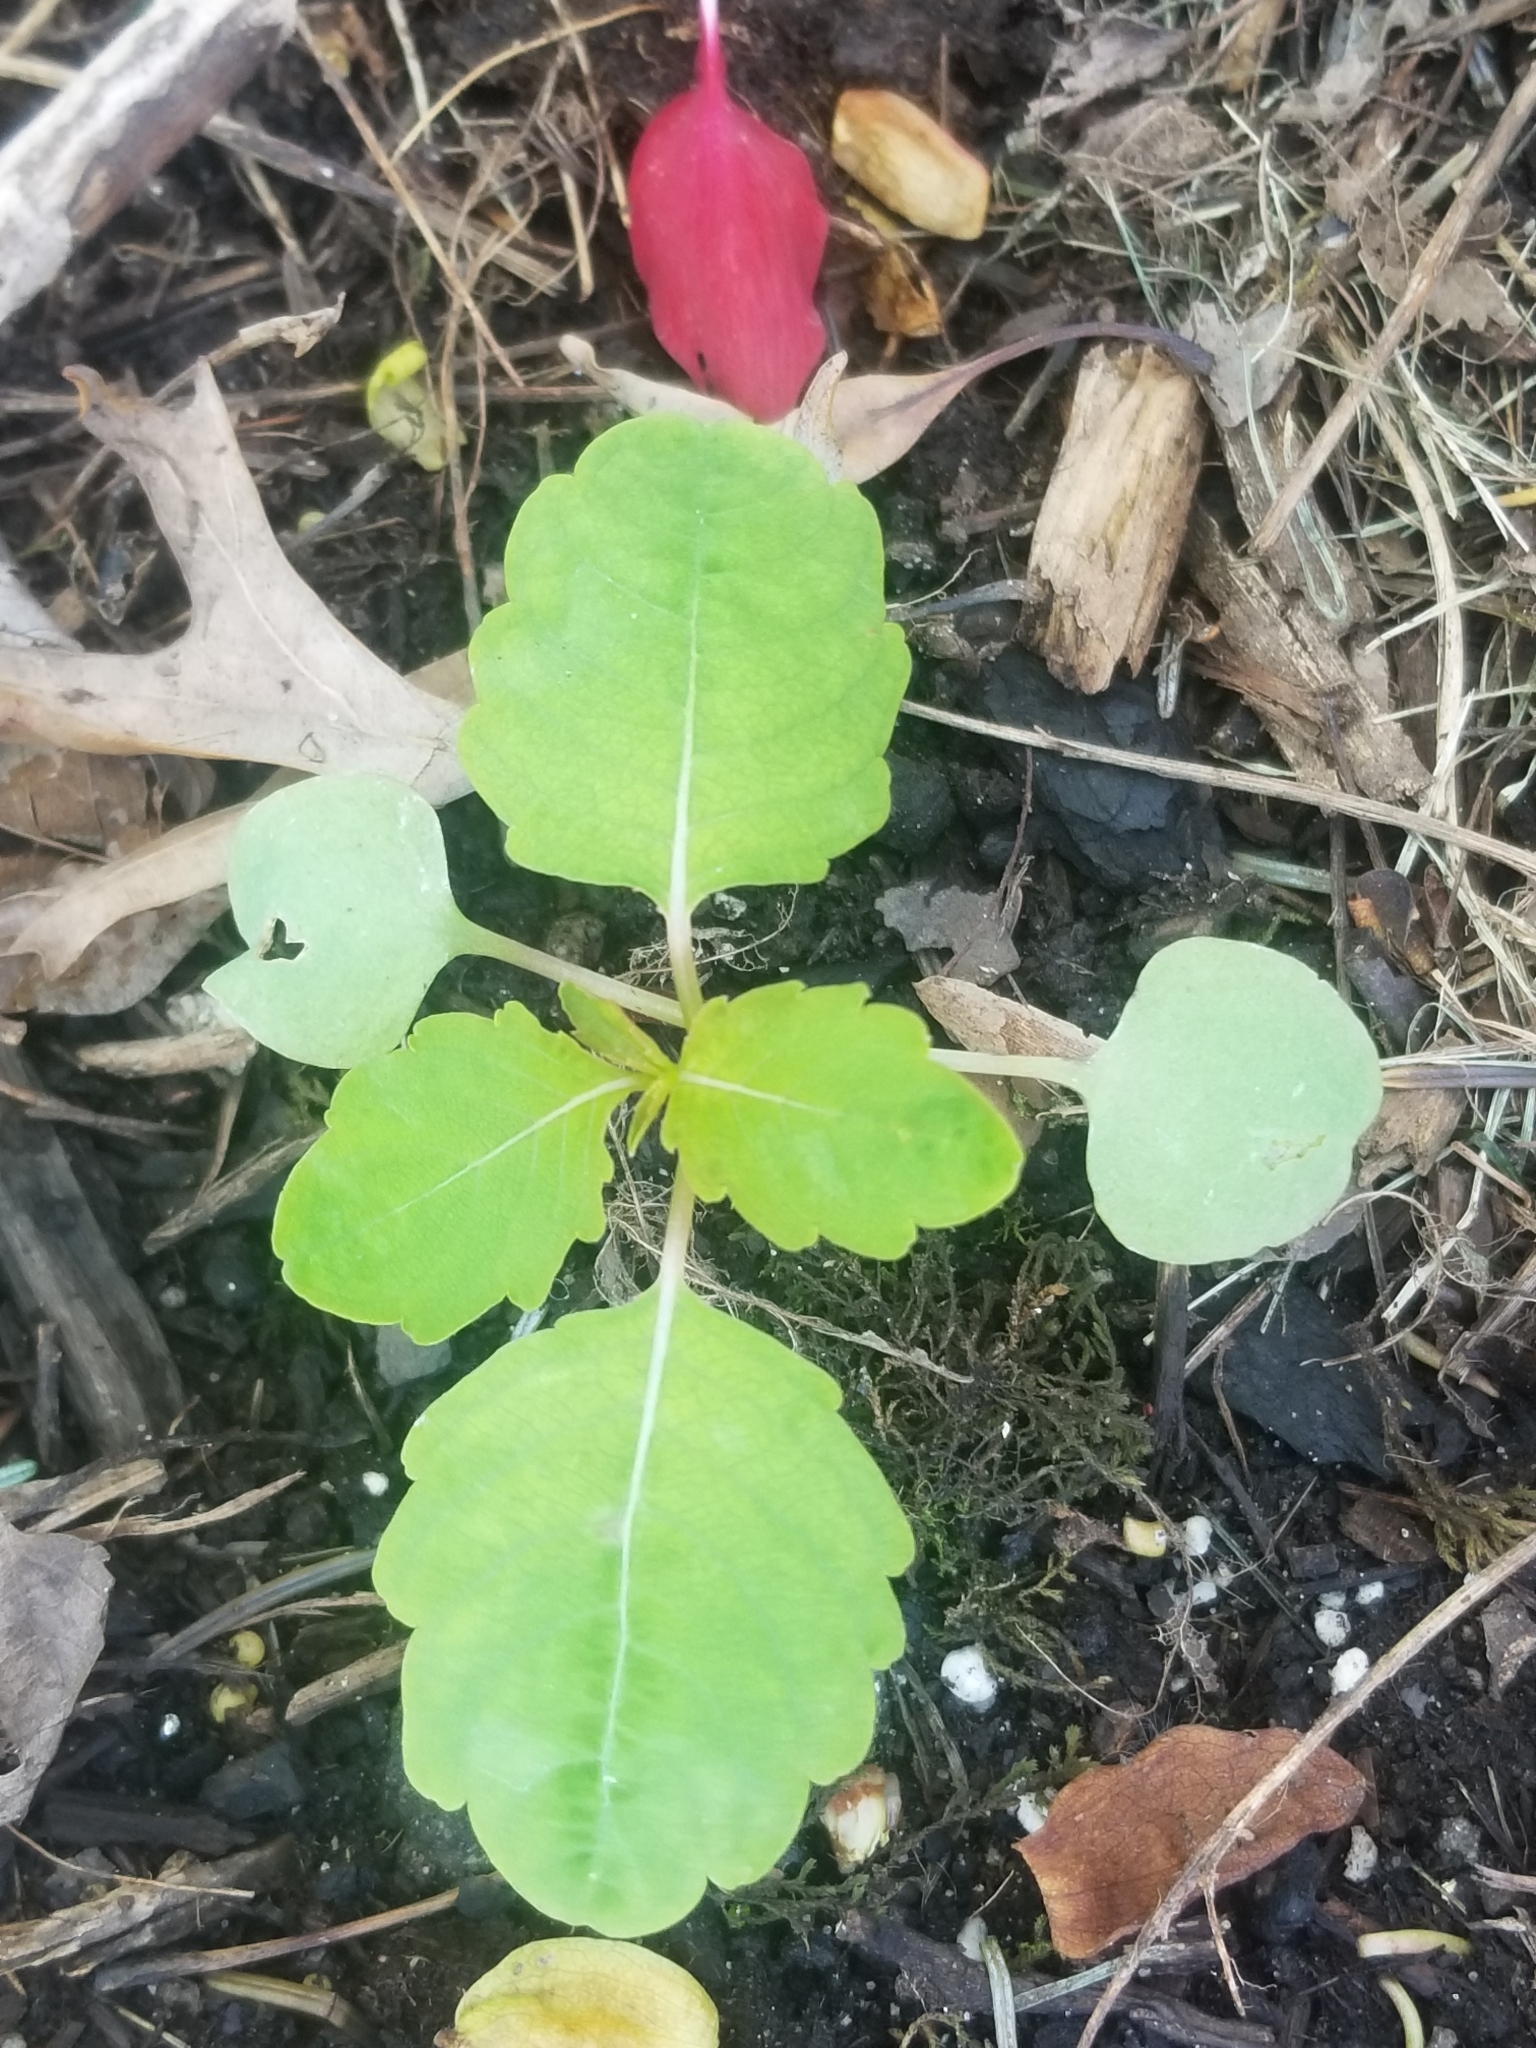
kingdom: Plantae
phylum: Tracheophyta
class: Magnoliopsida
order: Ericales
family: Balsaminaceae
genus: Impatiens
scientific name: Impatiens capensis
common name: Orange balsam
